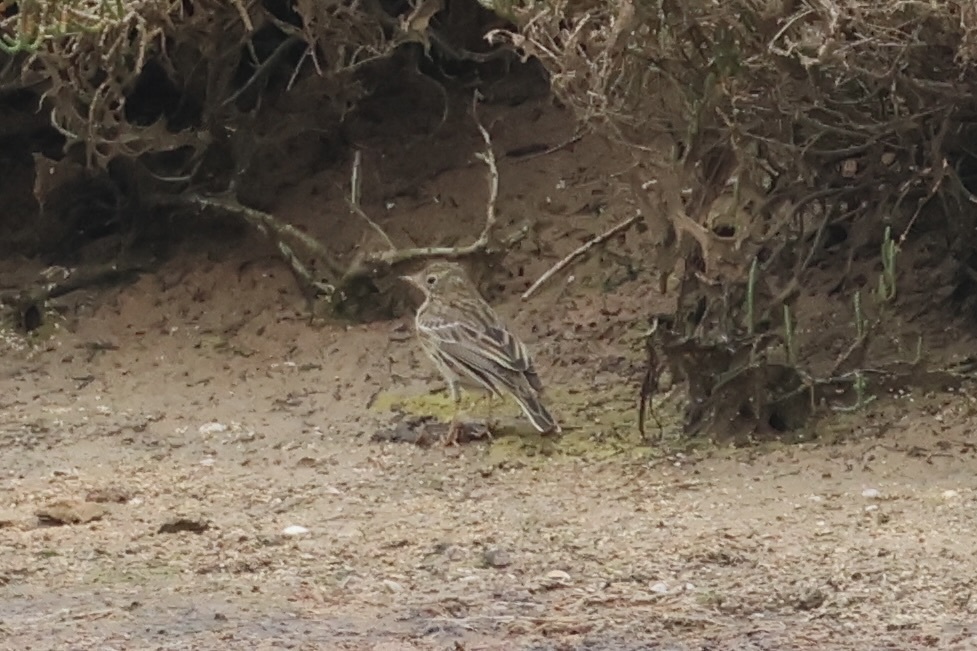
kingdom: Animalia
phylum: Chordata
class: Aves
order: Passeriformes
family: Motacillidae
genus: Anthus
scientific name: Anthus pratensis
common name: Meadow pipit
